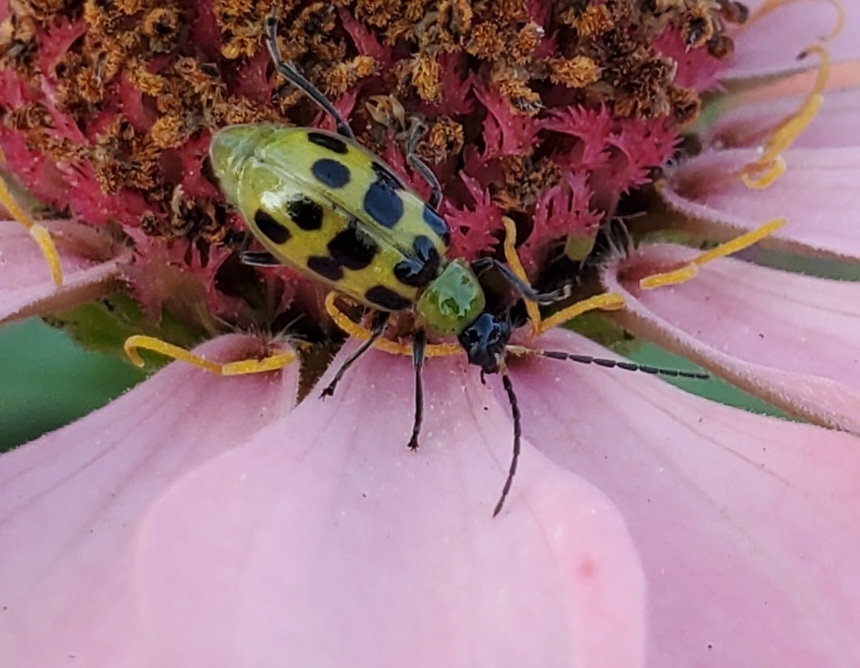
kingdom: Animalia
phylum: Arthropoda
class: Insecta
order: Coleoptera
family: Chrysomelidae
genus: Diabrotica
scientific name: Diabrotica undecimpunctata
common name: Spotted cucumber beetle
